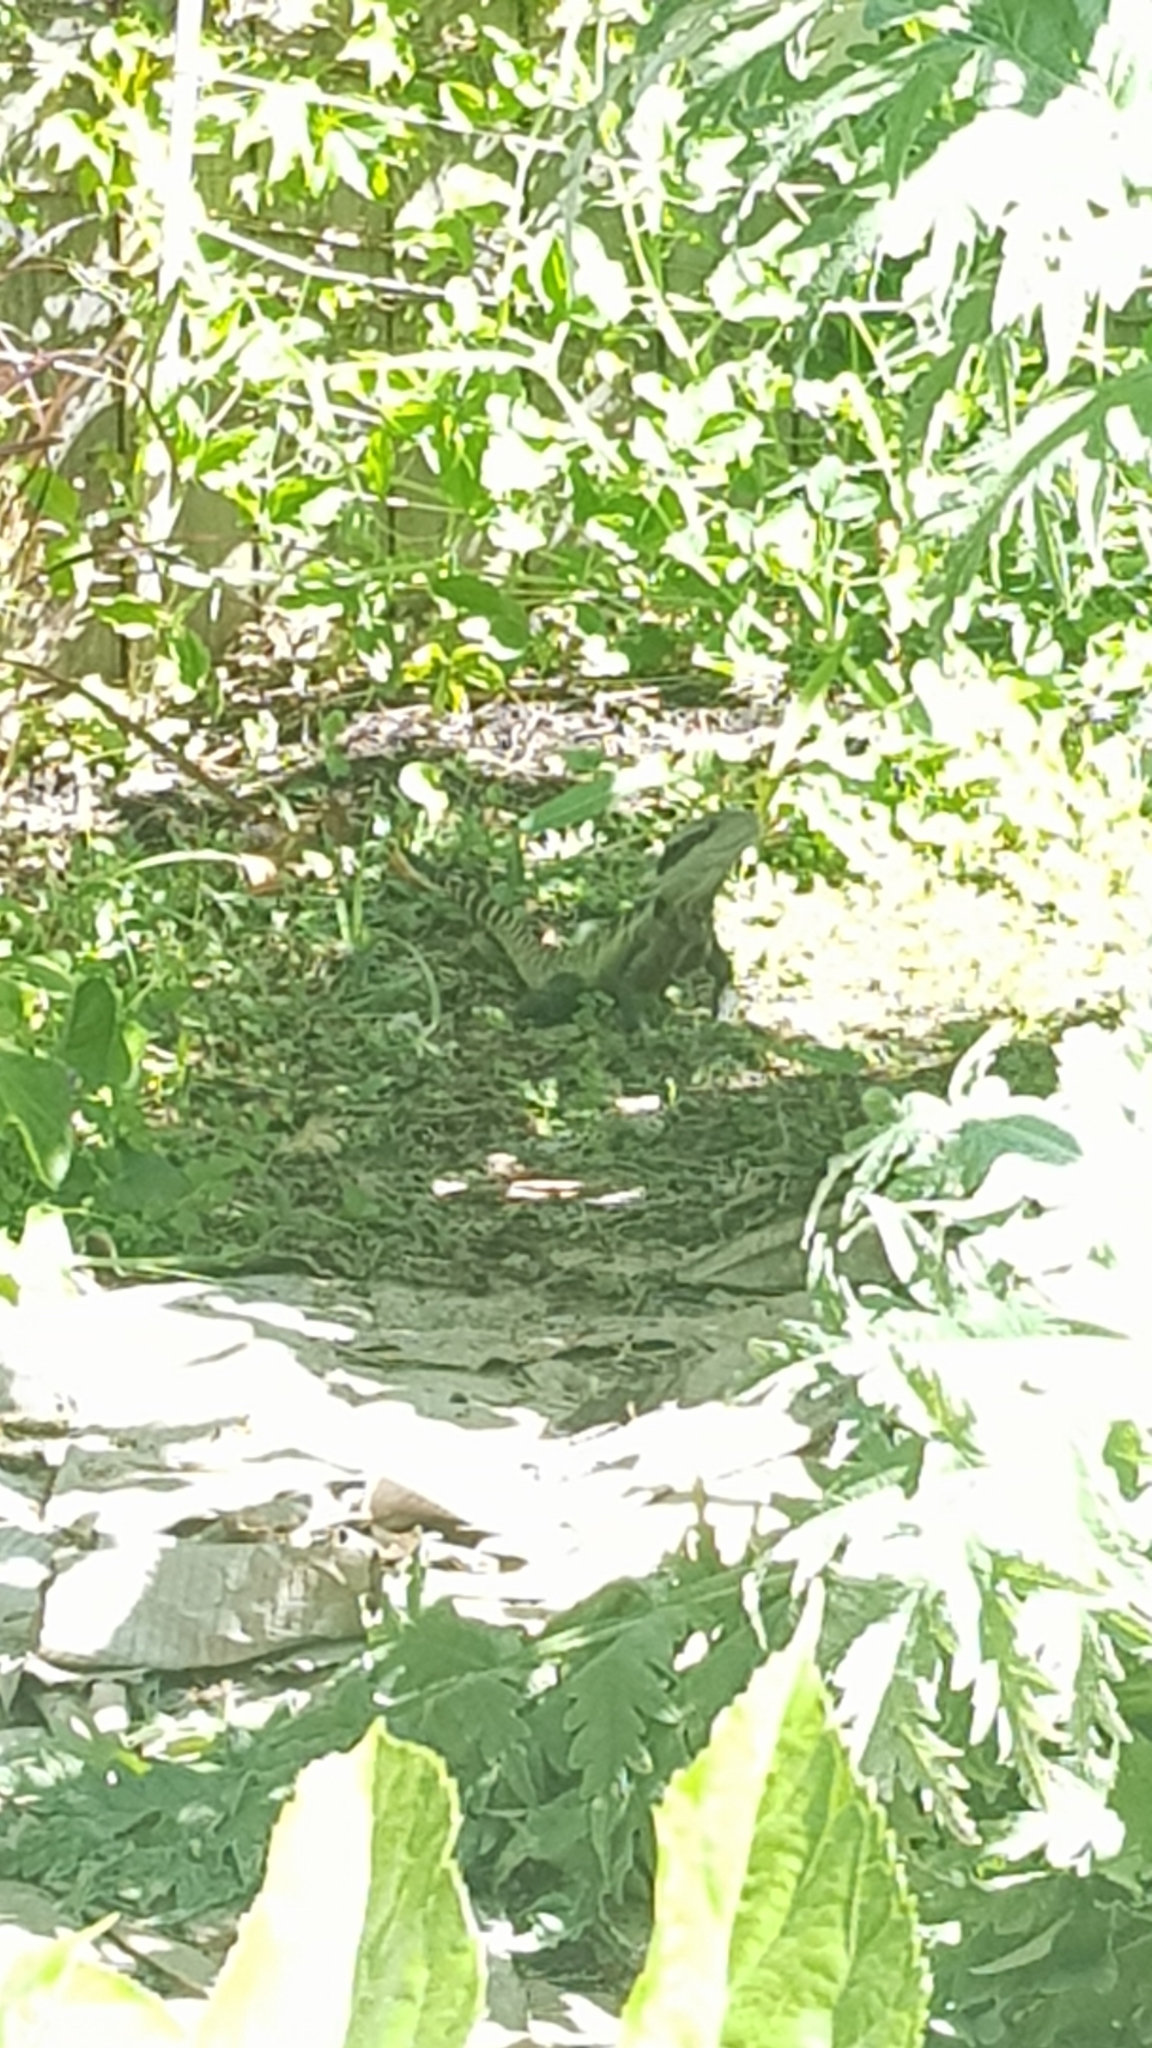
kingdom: Animalia
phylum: Chordata
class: Squamata
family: Agamidae
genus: Intellagama
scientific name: Intellagama lesueurii
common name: Eastern water dragon
